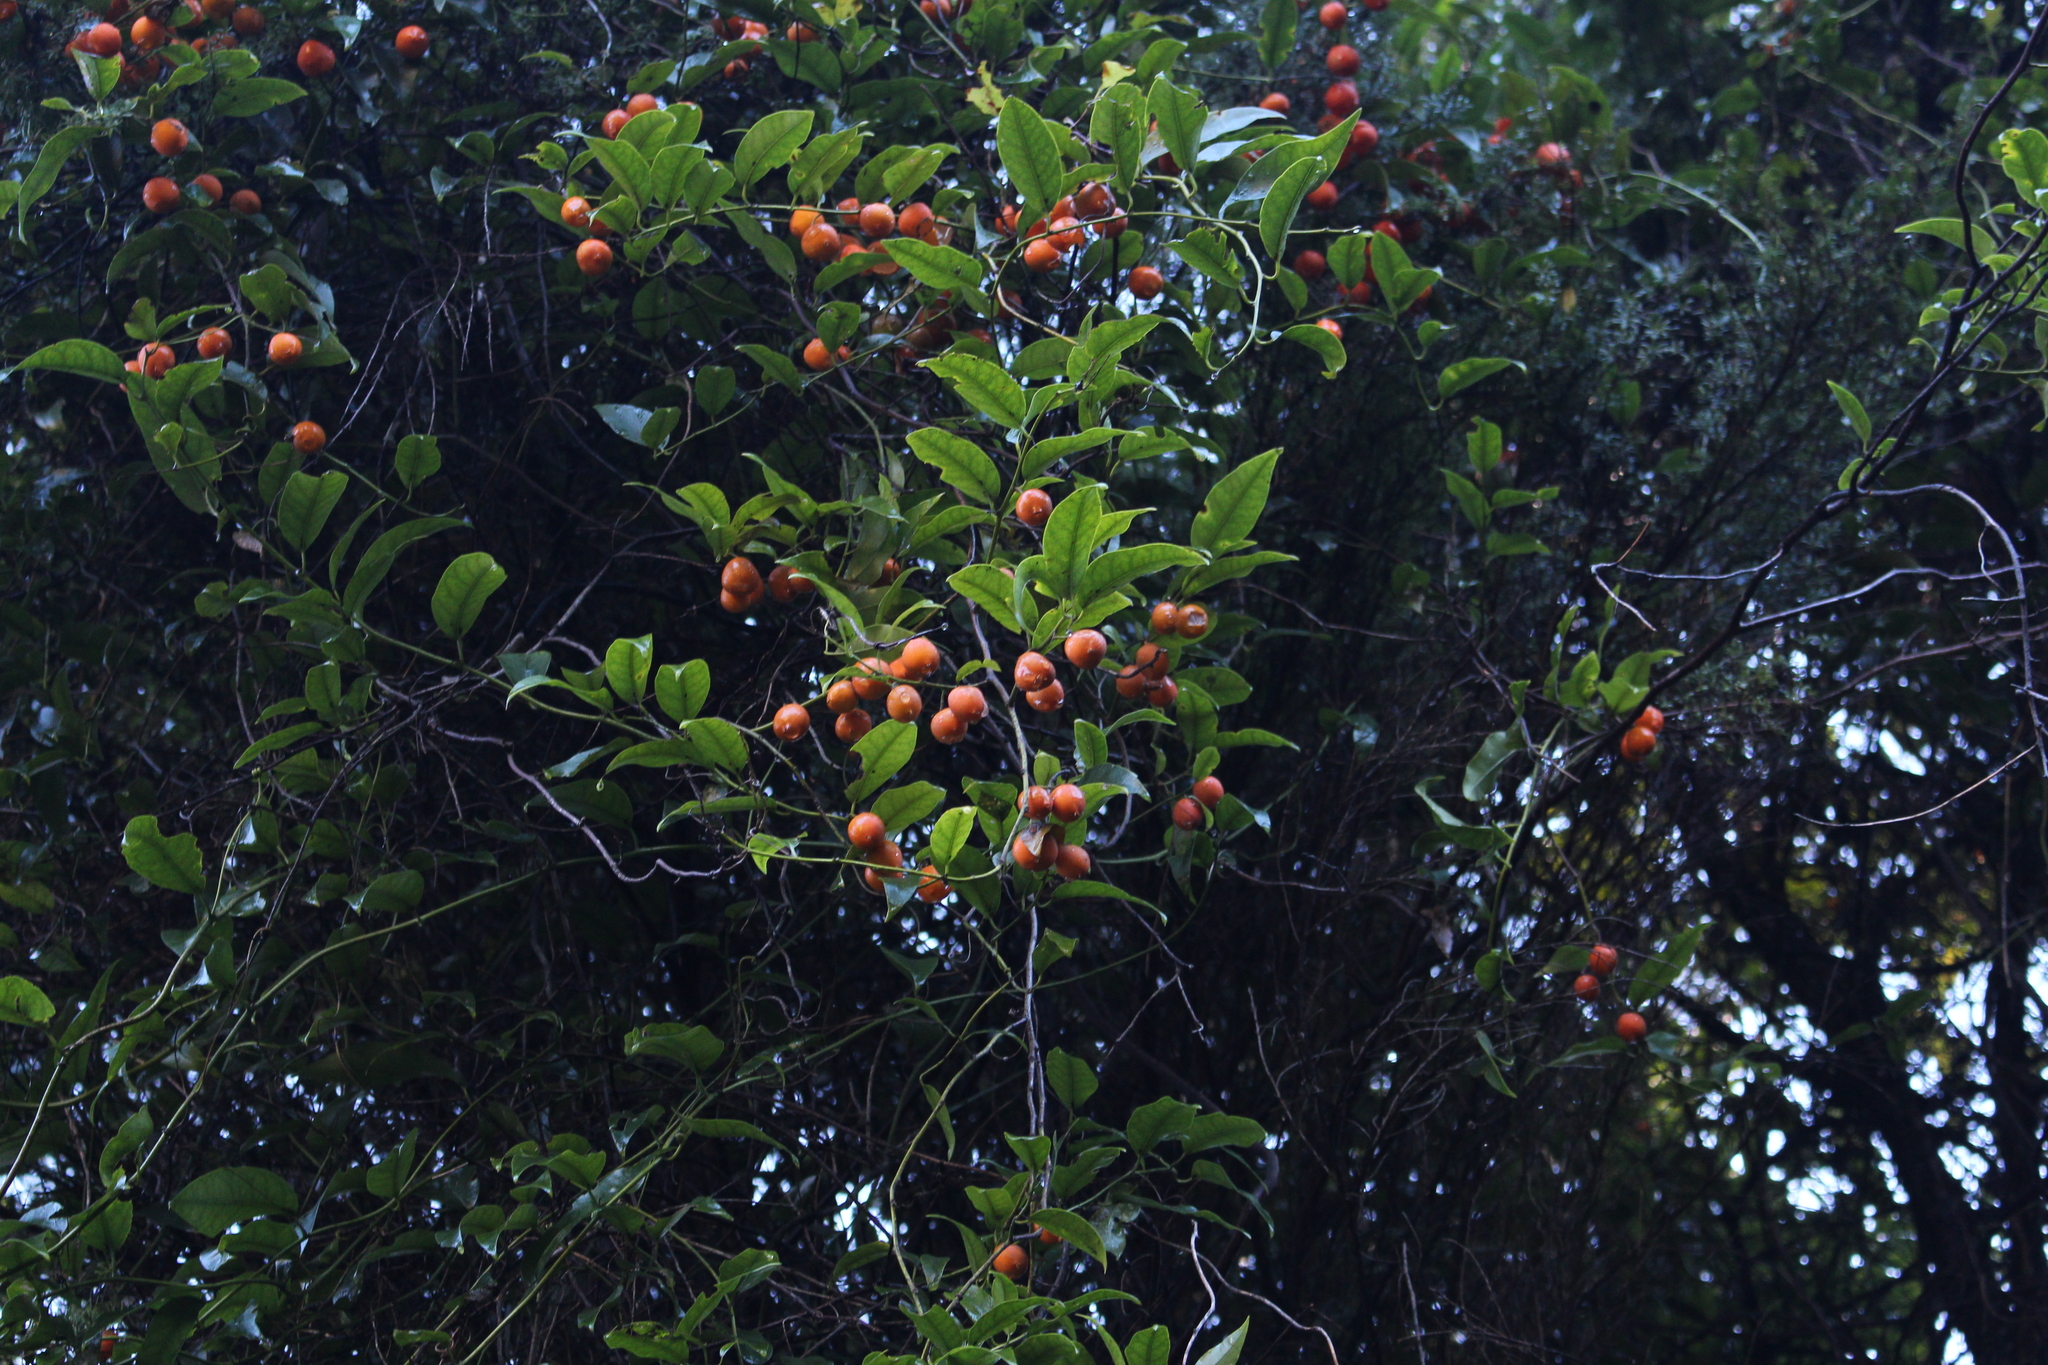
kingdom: Plantae
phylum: Tracheophyta
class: Magnoliopsida
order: Malpighiales
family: Passifloraceae
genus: Passiflora
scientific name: Passiflora tetrandra
